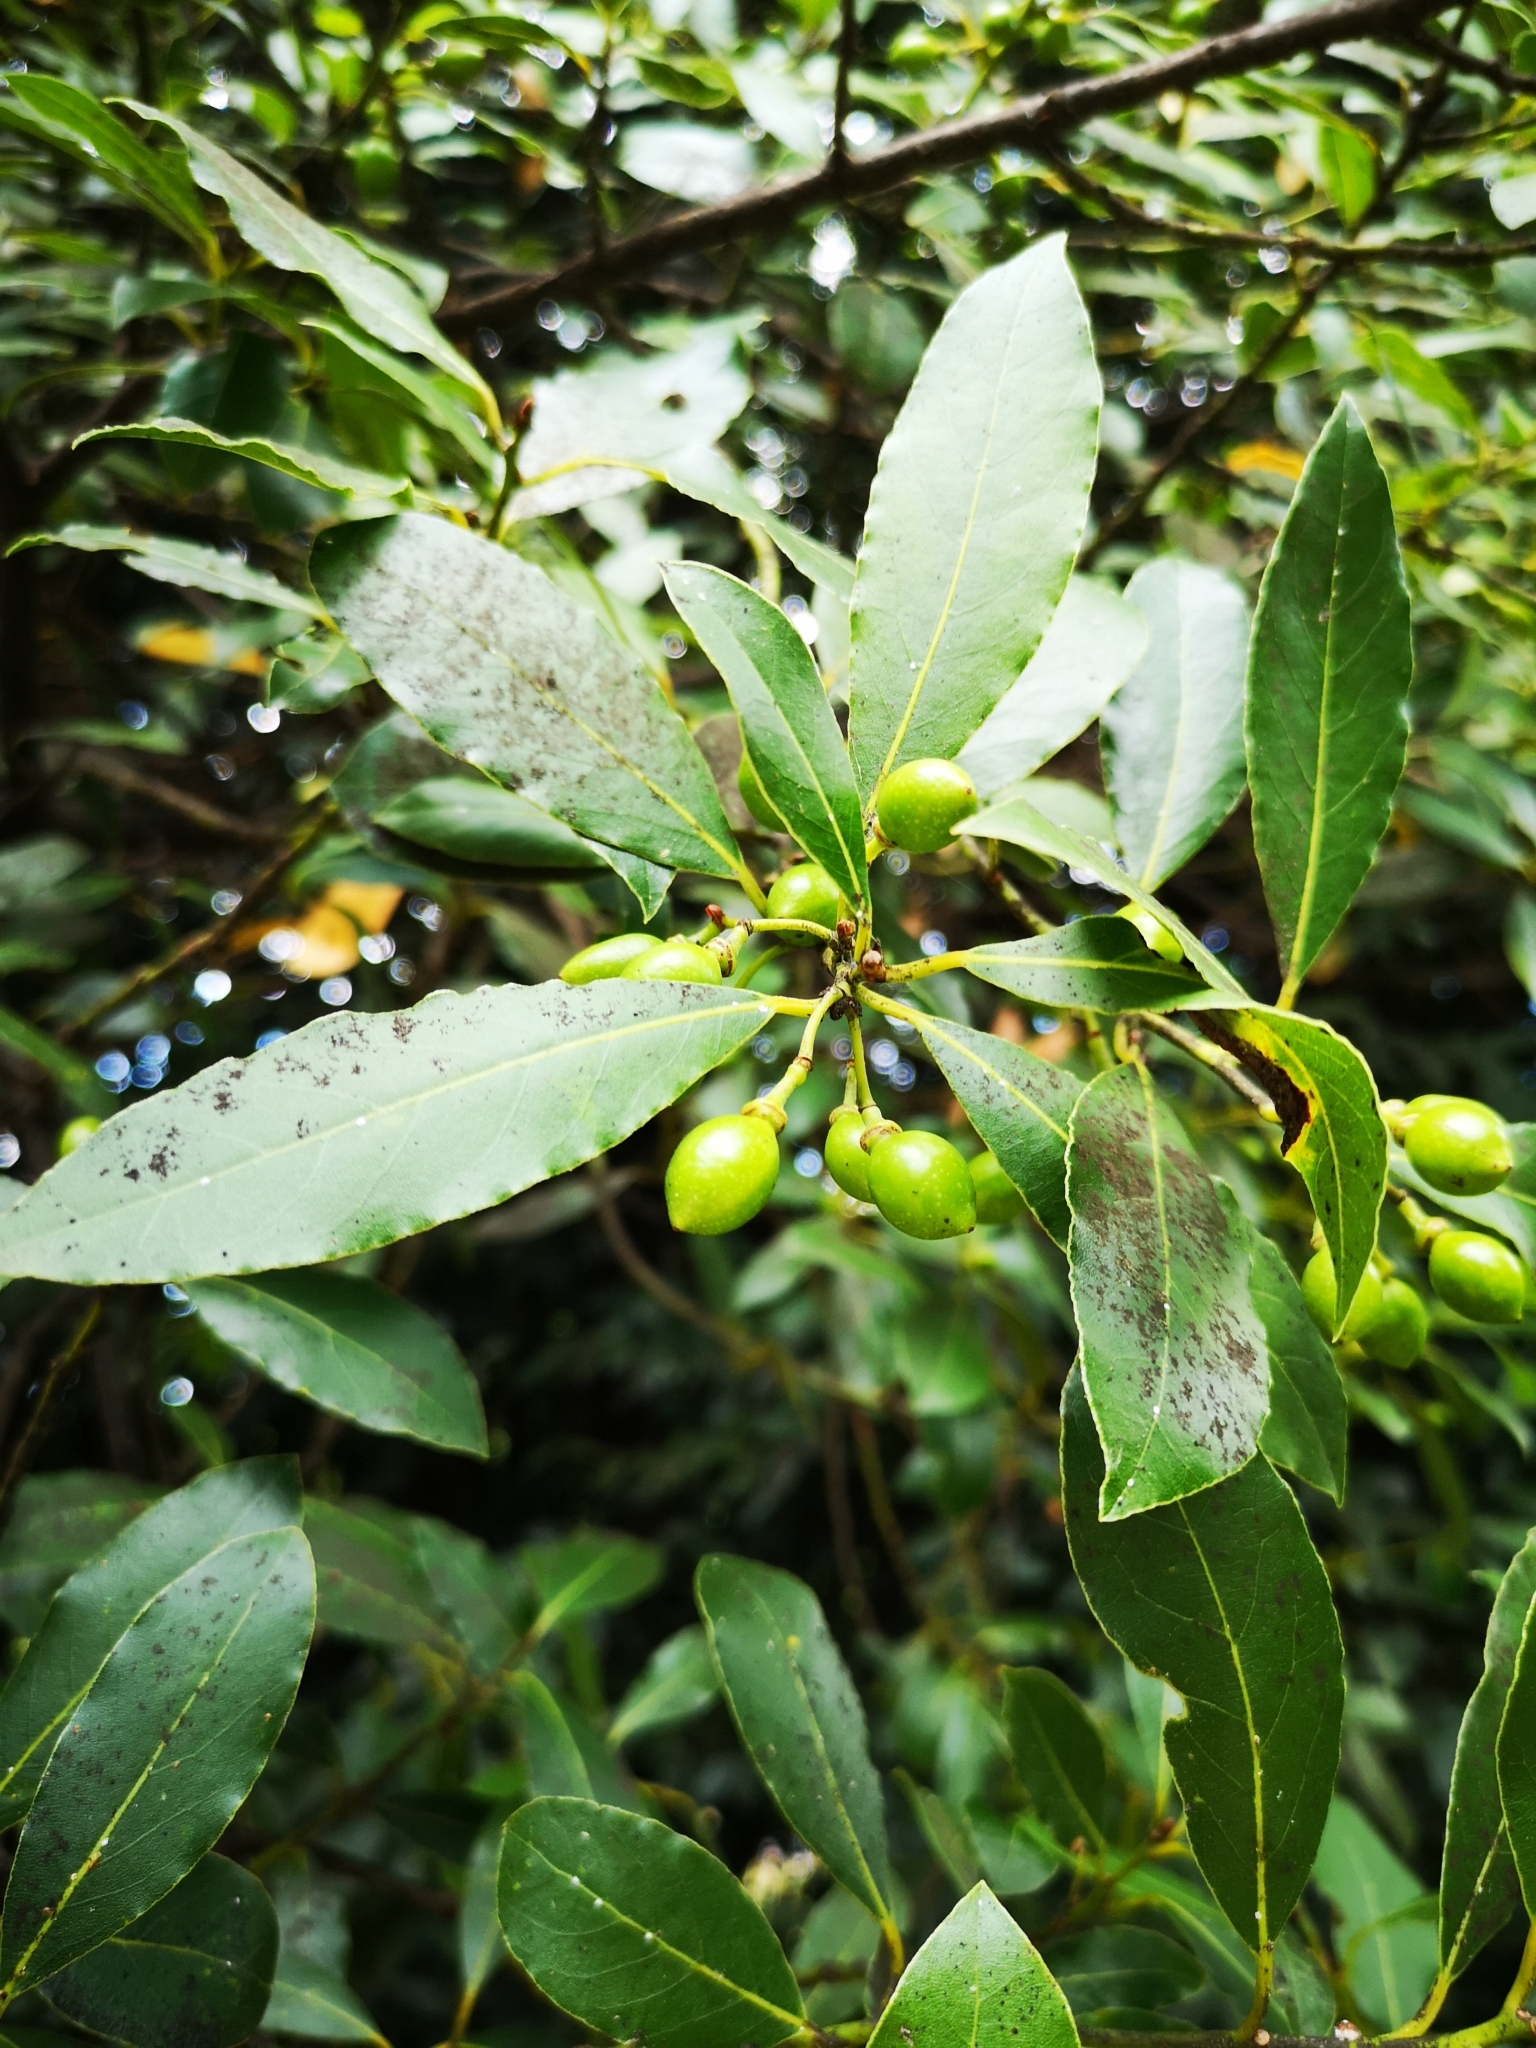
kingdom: Plantae
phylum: Tracheophyta
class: Magnoliopsida
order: Laurales
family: Lauraceae
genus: Laurus
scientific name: Laurus nobilis
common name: Bay
